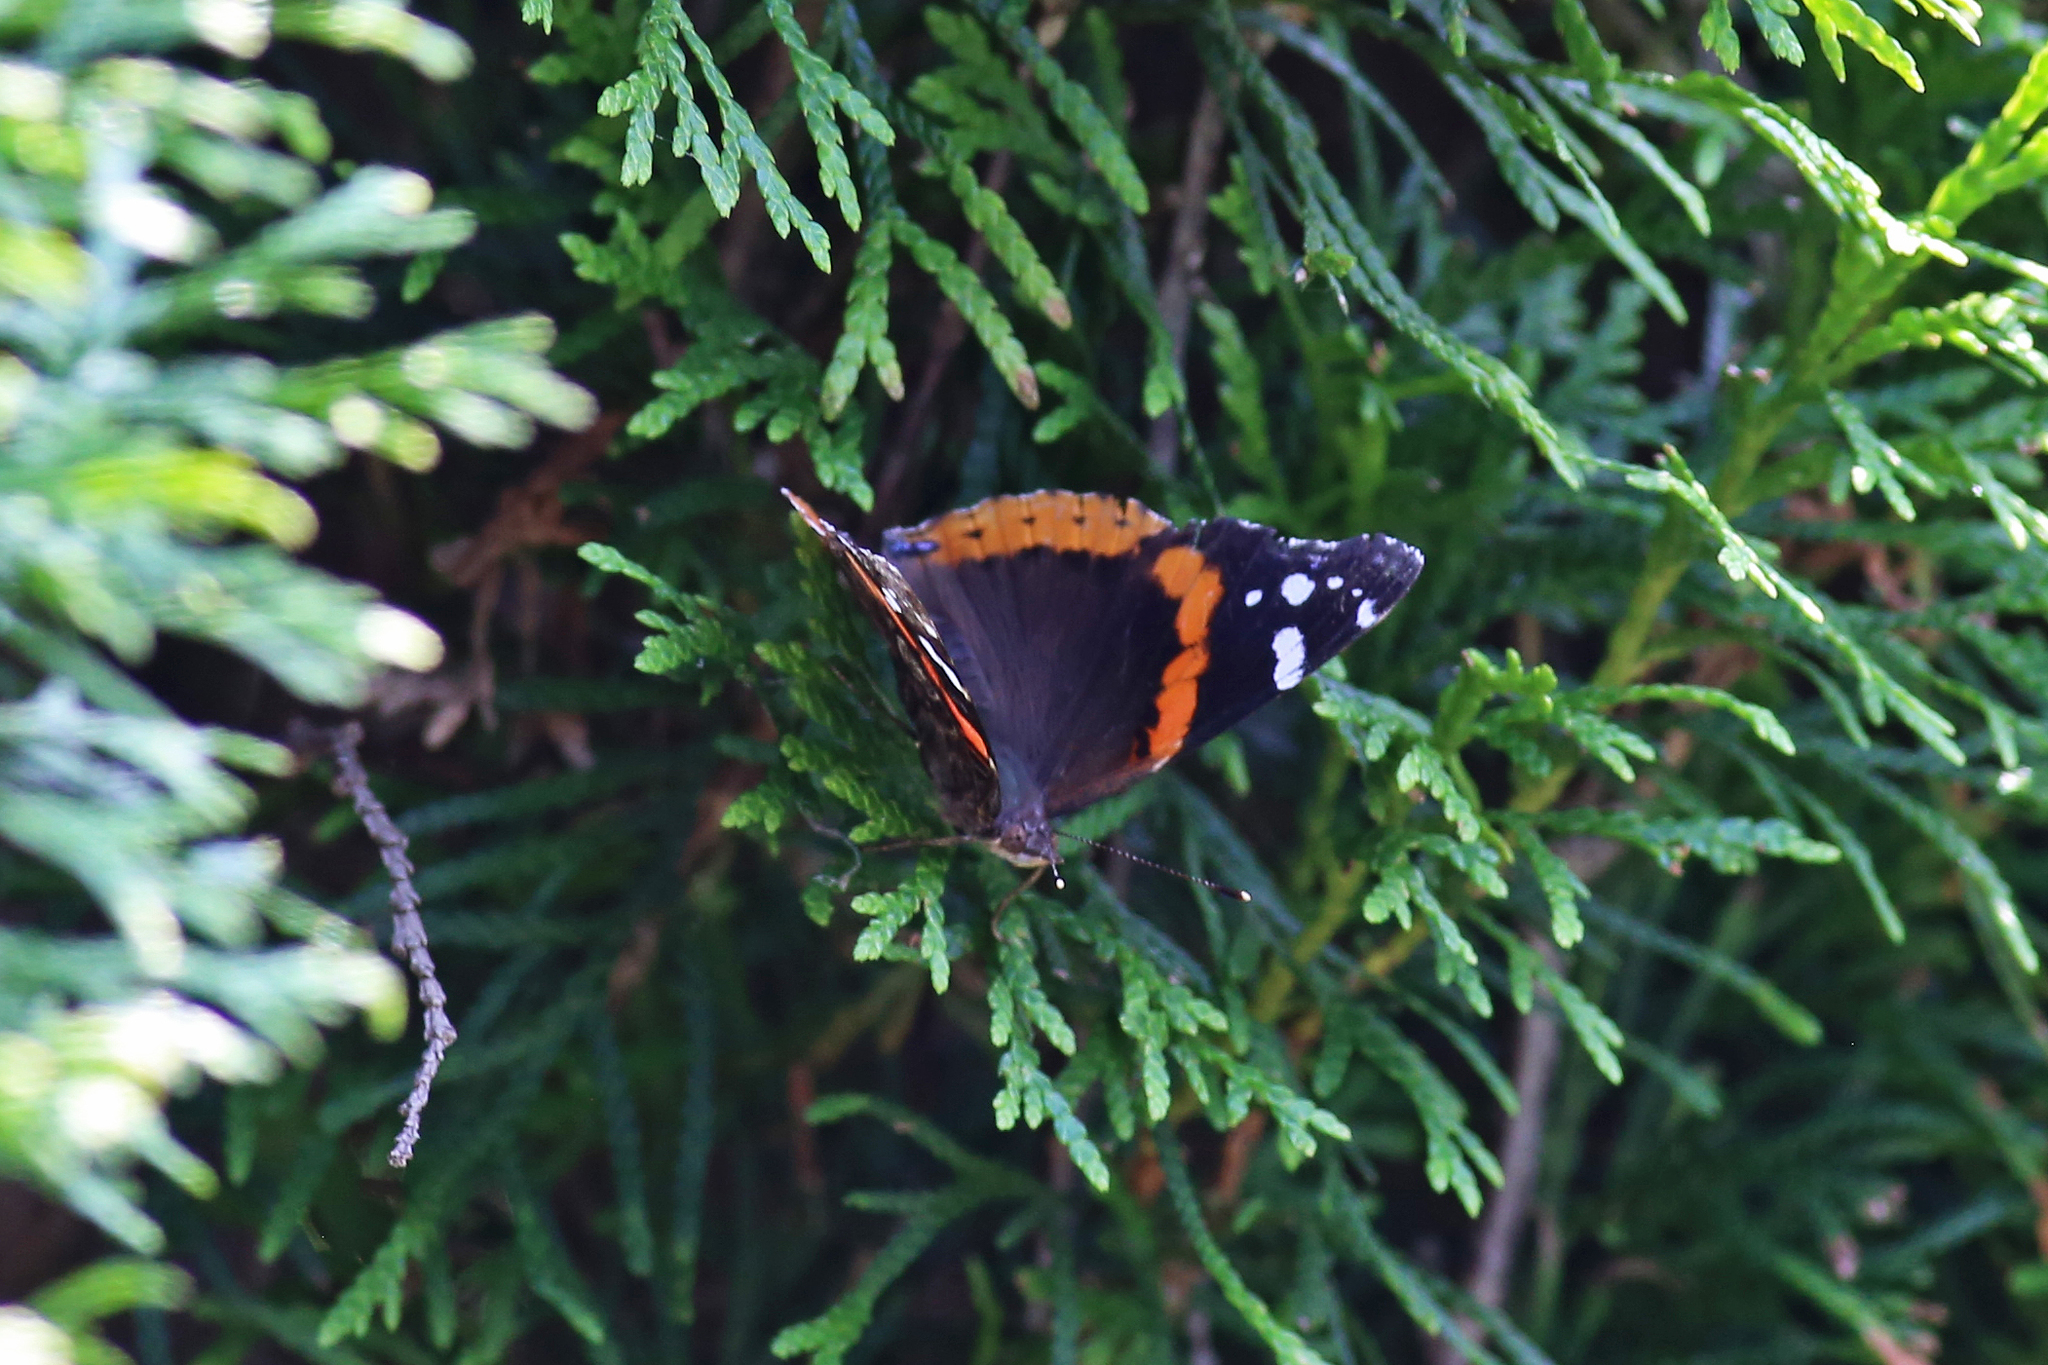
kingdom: Animalia
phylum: Arthropoda
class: Insecta
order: Lepidoptera
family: Nymphalidae
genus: Vanessa
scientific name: Vanessa atalanta
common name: Red admiral
